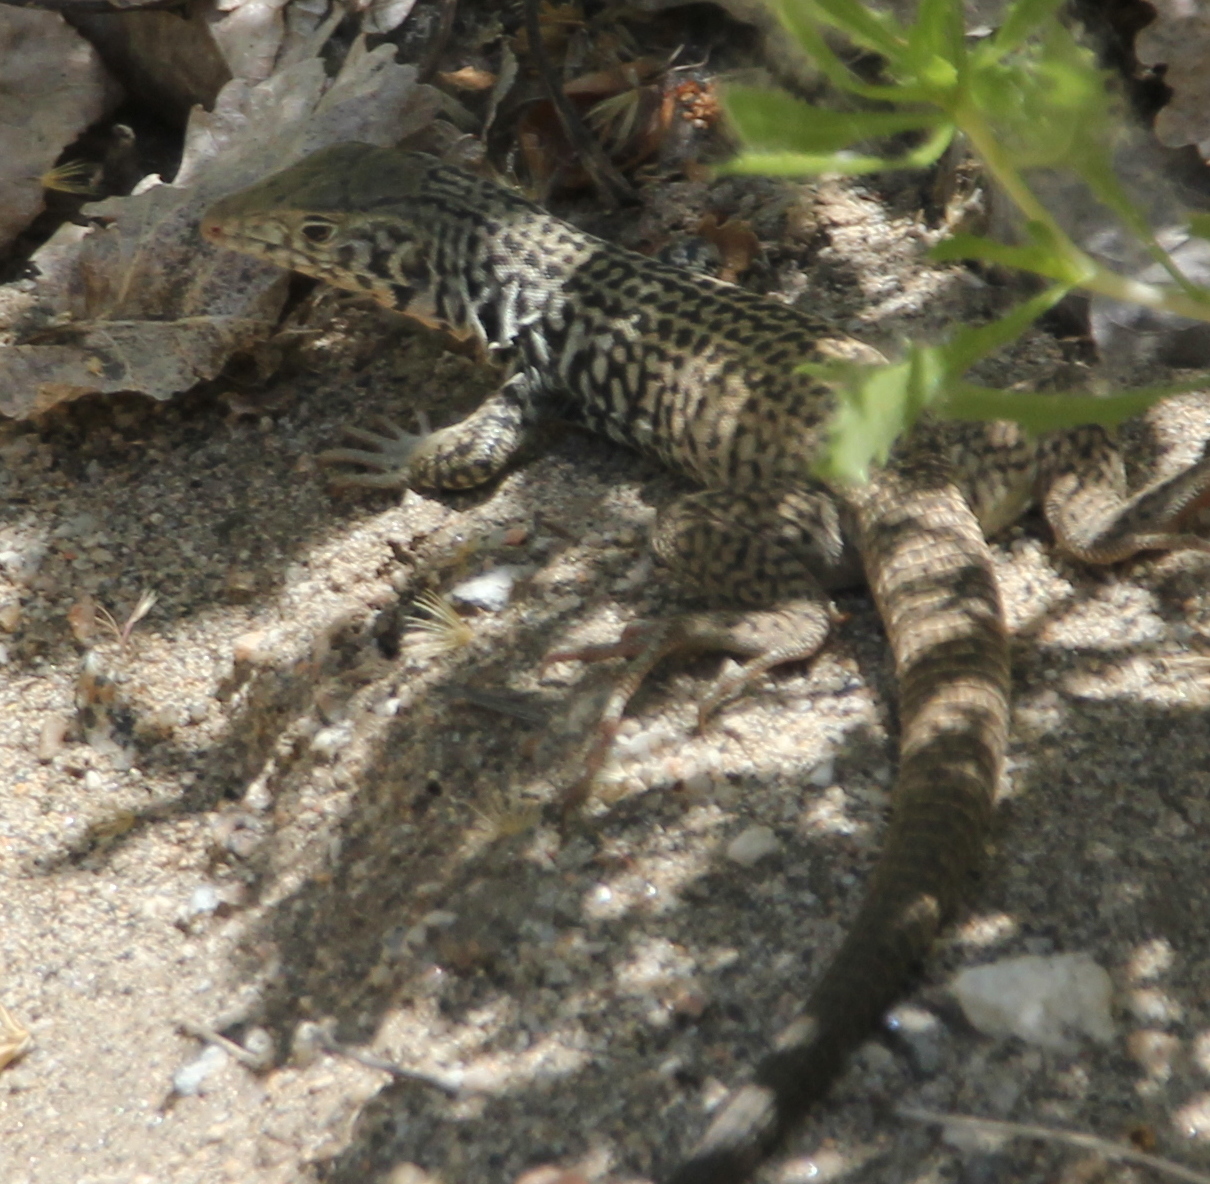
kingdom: Animalia
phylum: Chordata
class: Squamata
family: Teiidae
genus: Aspidoscelis
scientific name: Aspidoscelis tigris
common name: Tiger whiptail
